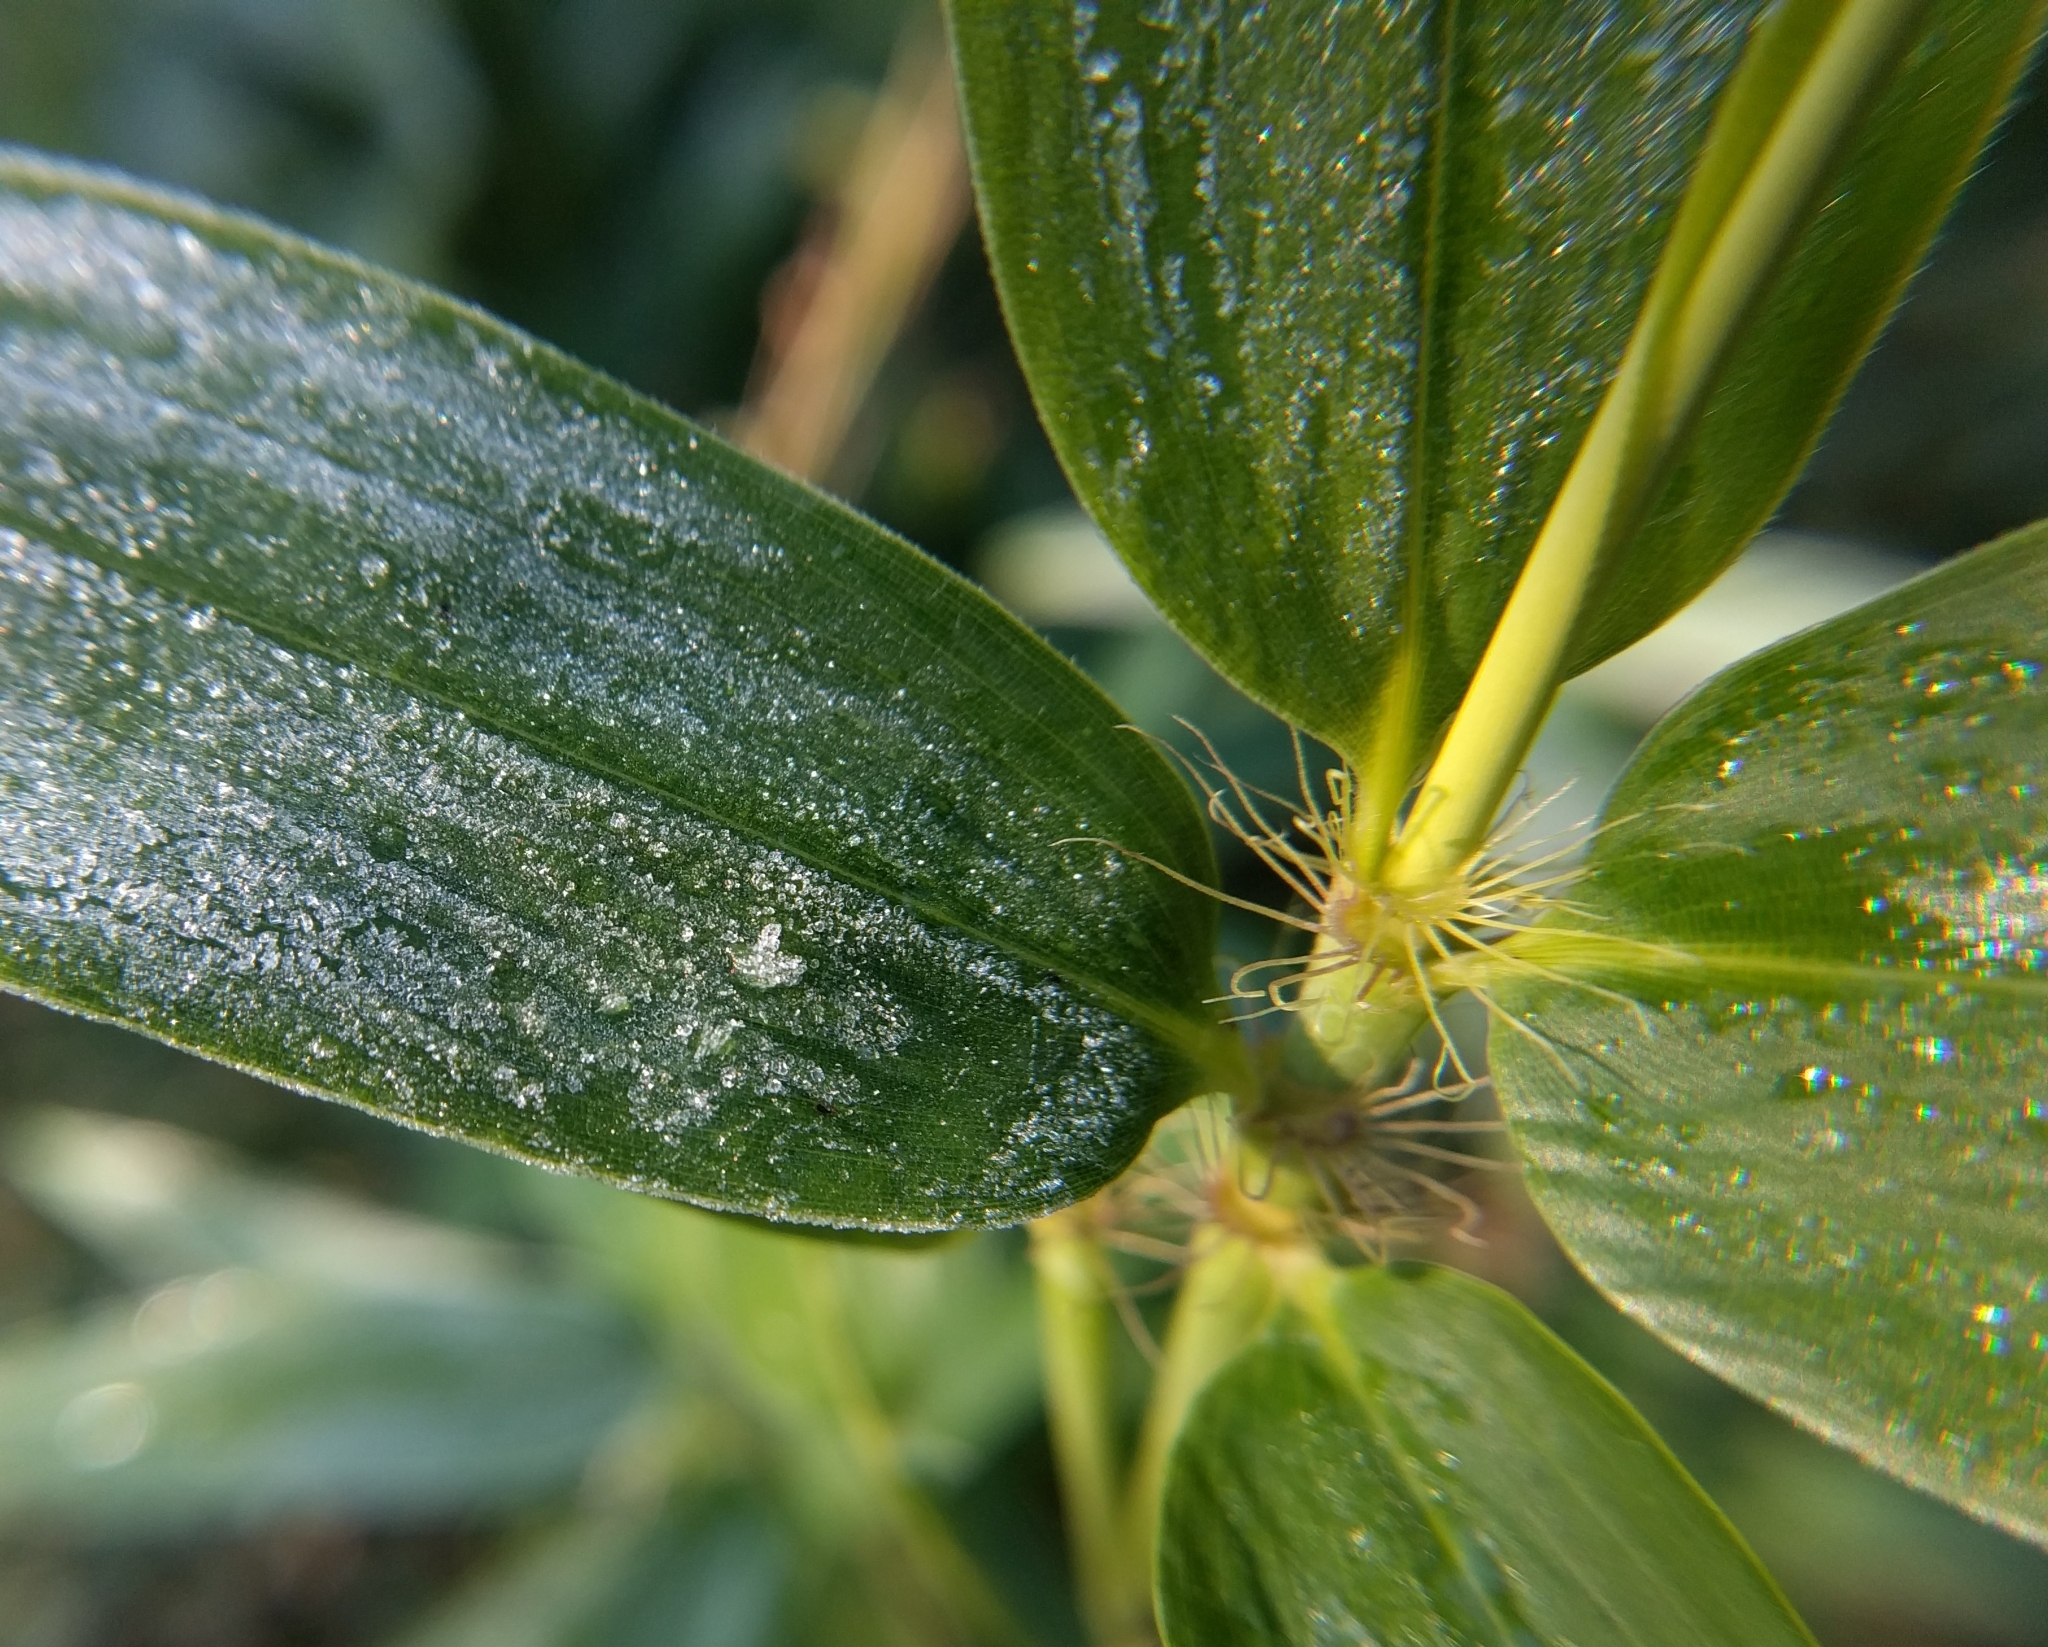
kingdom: Plantae
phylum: Tracheophyta
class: Liliopsida
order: Poales
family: Poaceae
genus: Phyllostachys
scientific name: Phyllostachys aurea
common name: Golden bamboo
